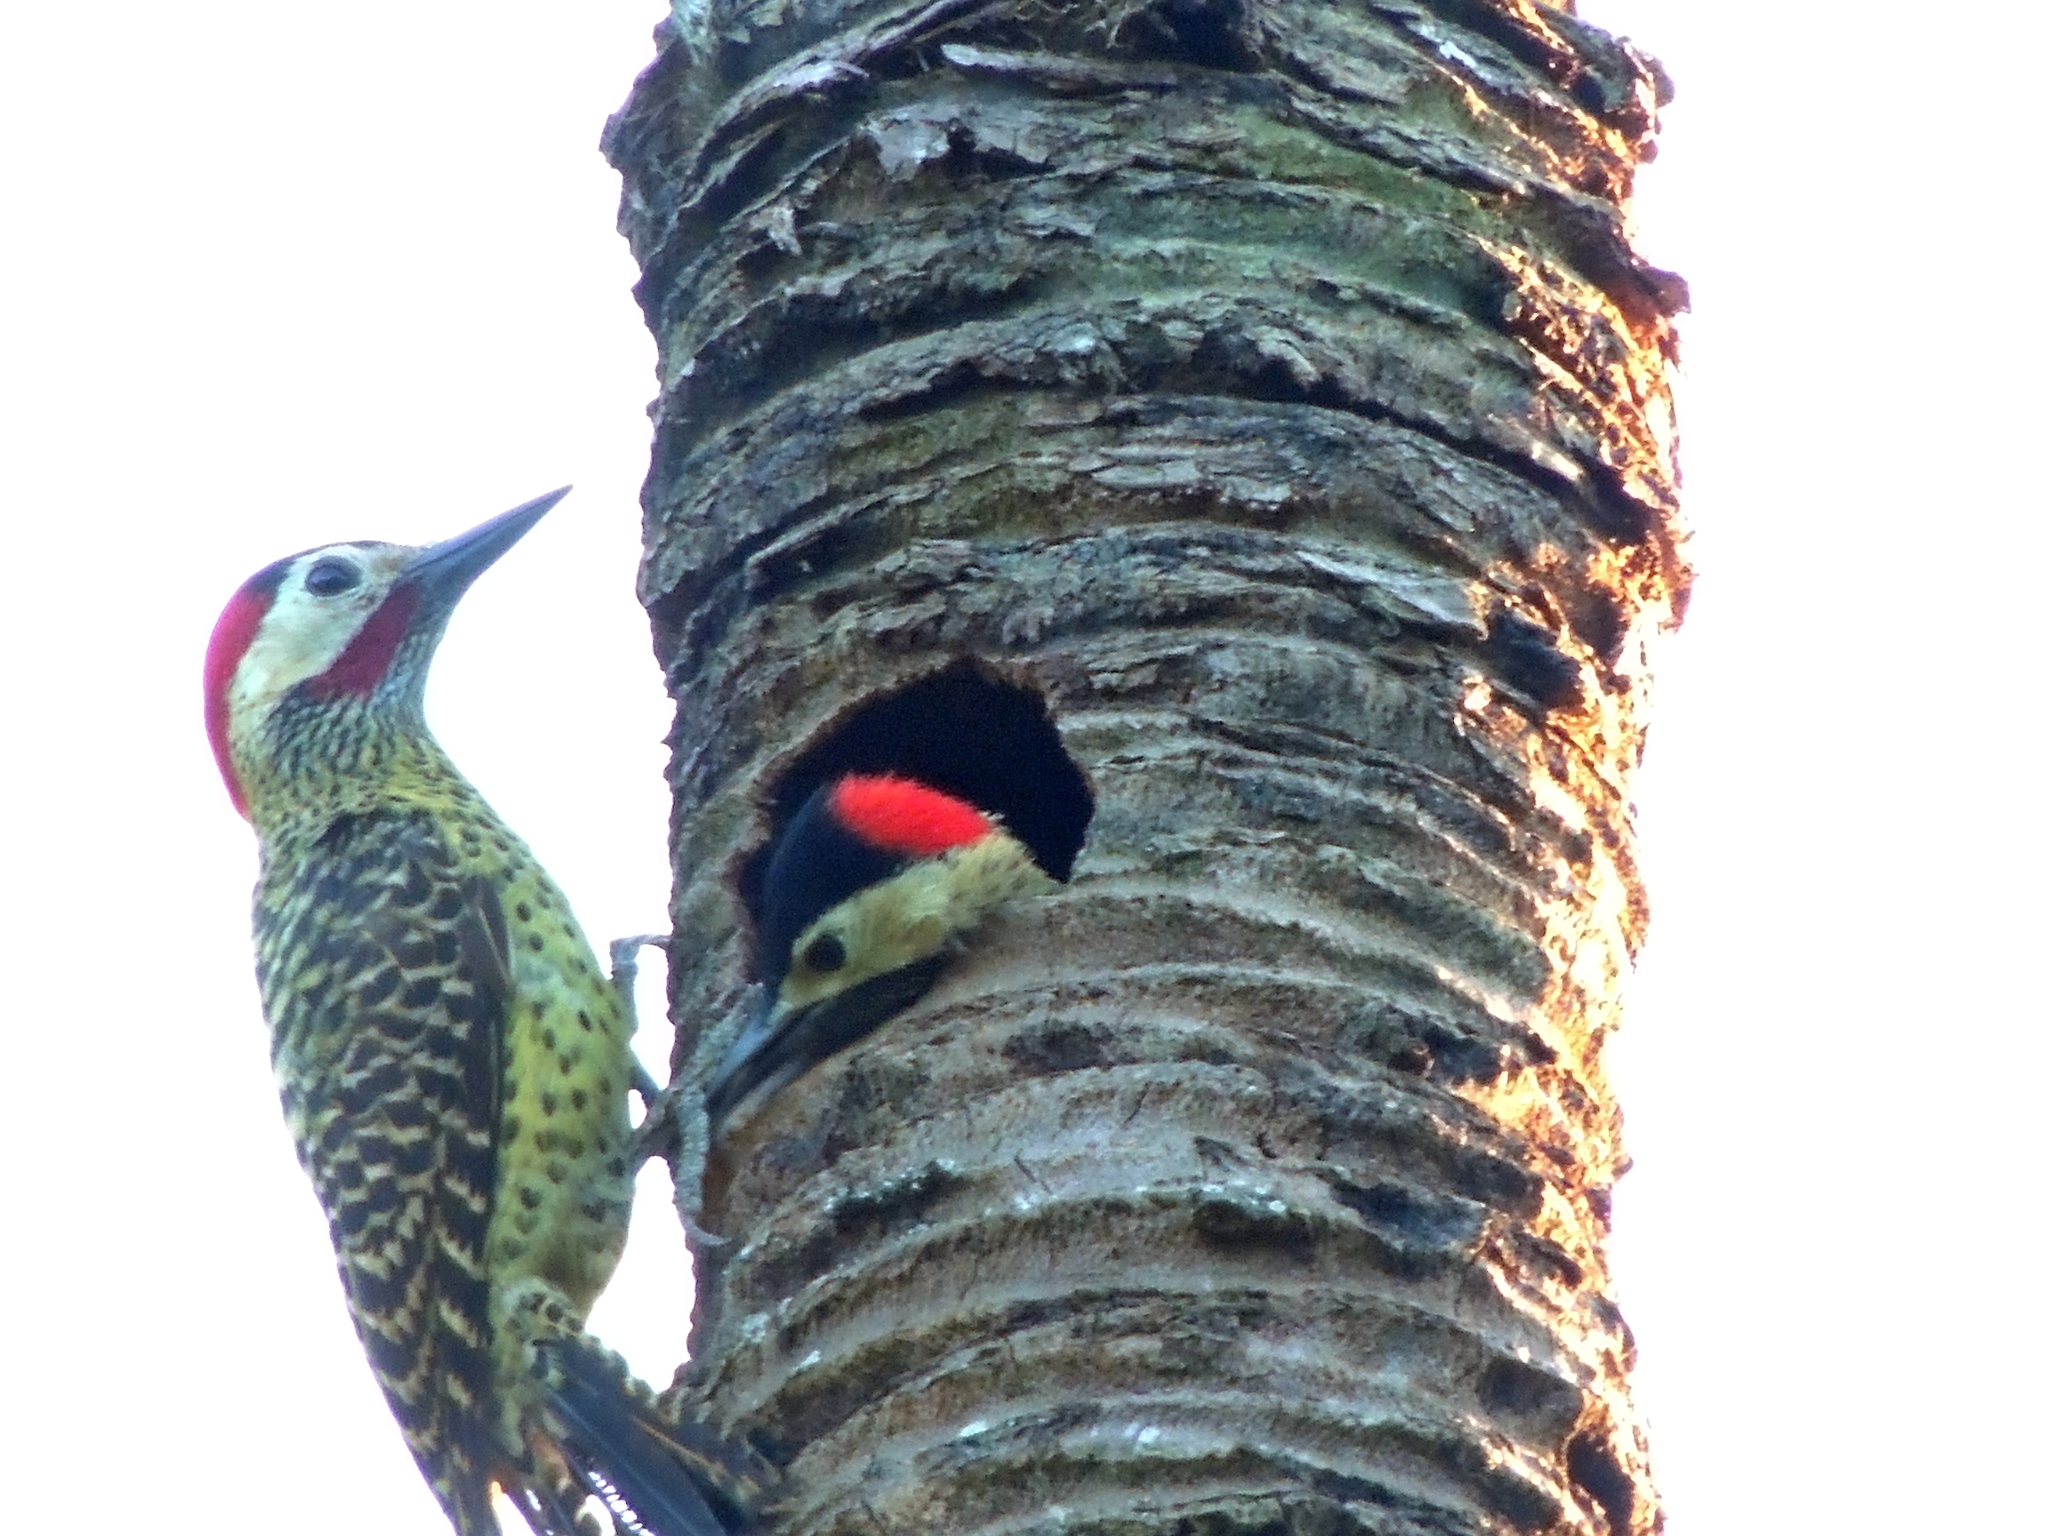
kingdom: Animalia
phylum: Chordata
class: Aves
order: Piciformes
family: Picidae
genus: Colaptes
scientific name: Colaptes melanochloros
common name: Green-barred woodpecker
